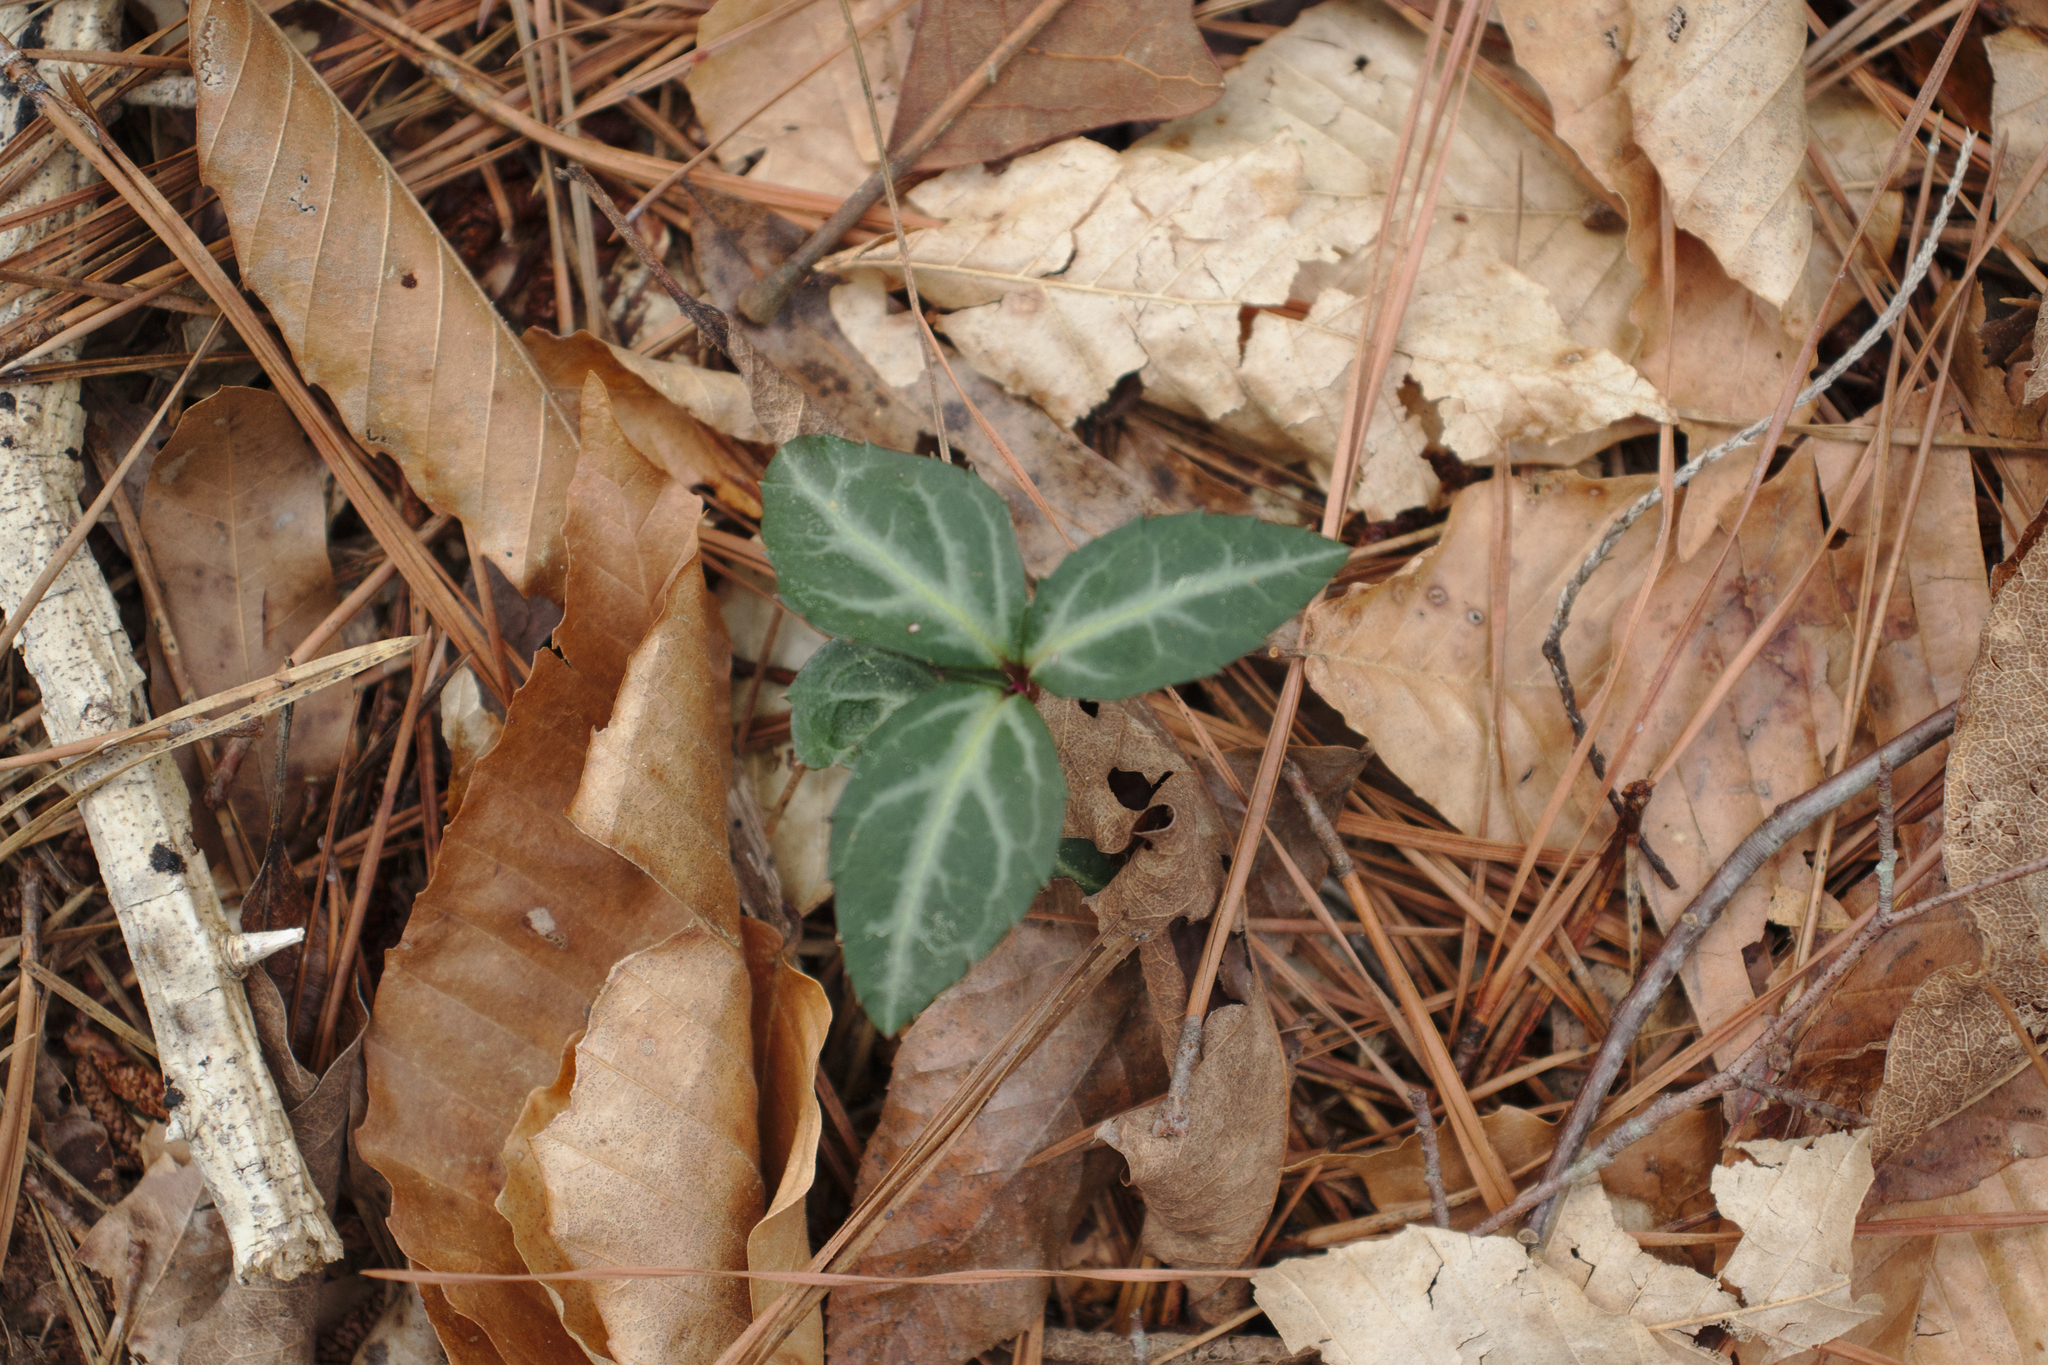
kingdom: Plantae
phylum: Tracheophyta
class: Magnoliopsida
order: Ericales
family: Ericaceae
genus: Chimaphila
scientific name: Chimaphila maculata
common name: Spotted pipsissewa
